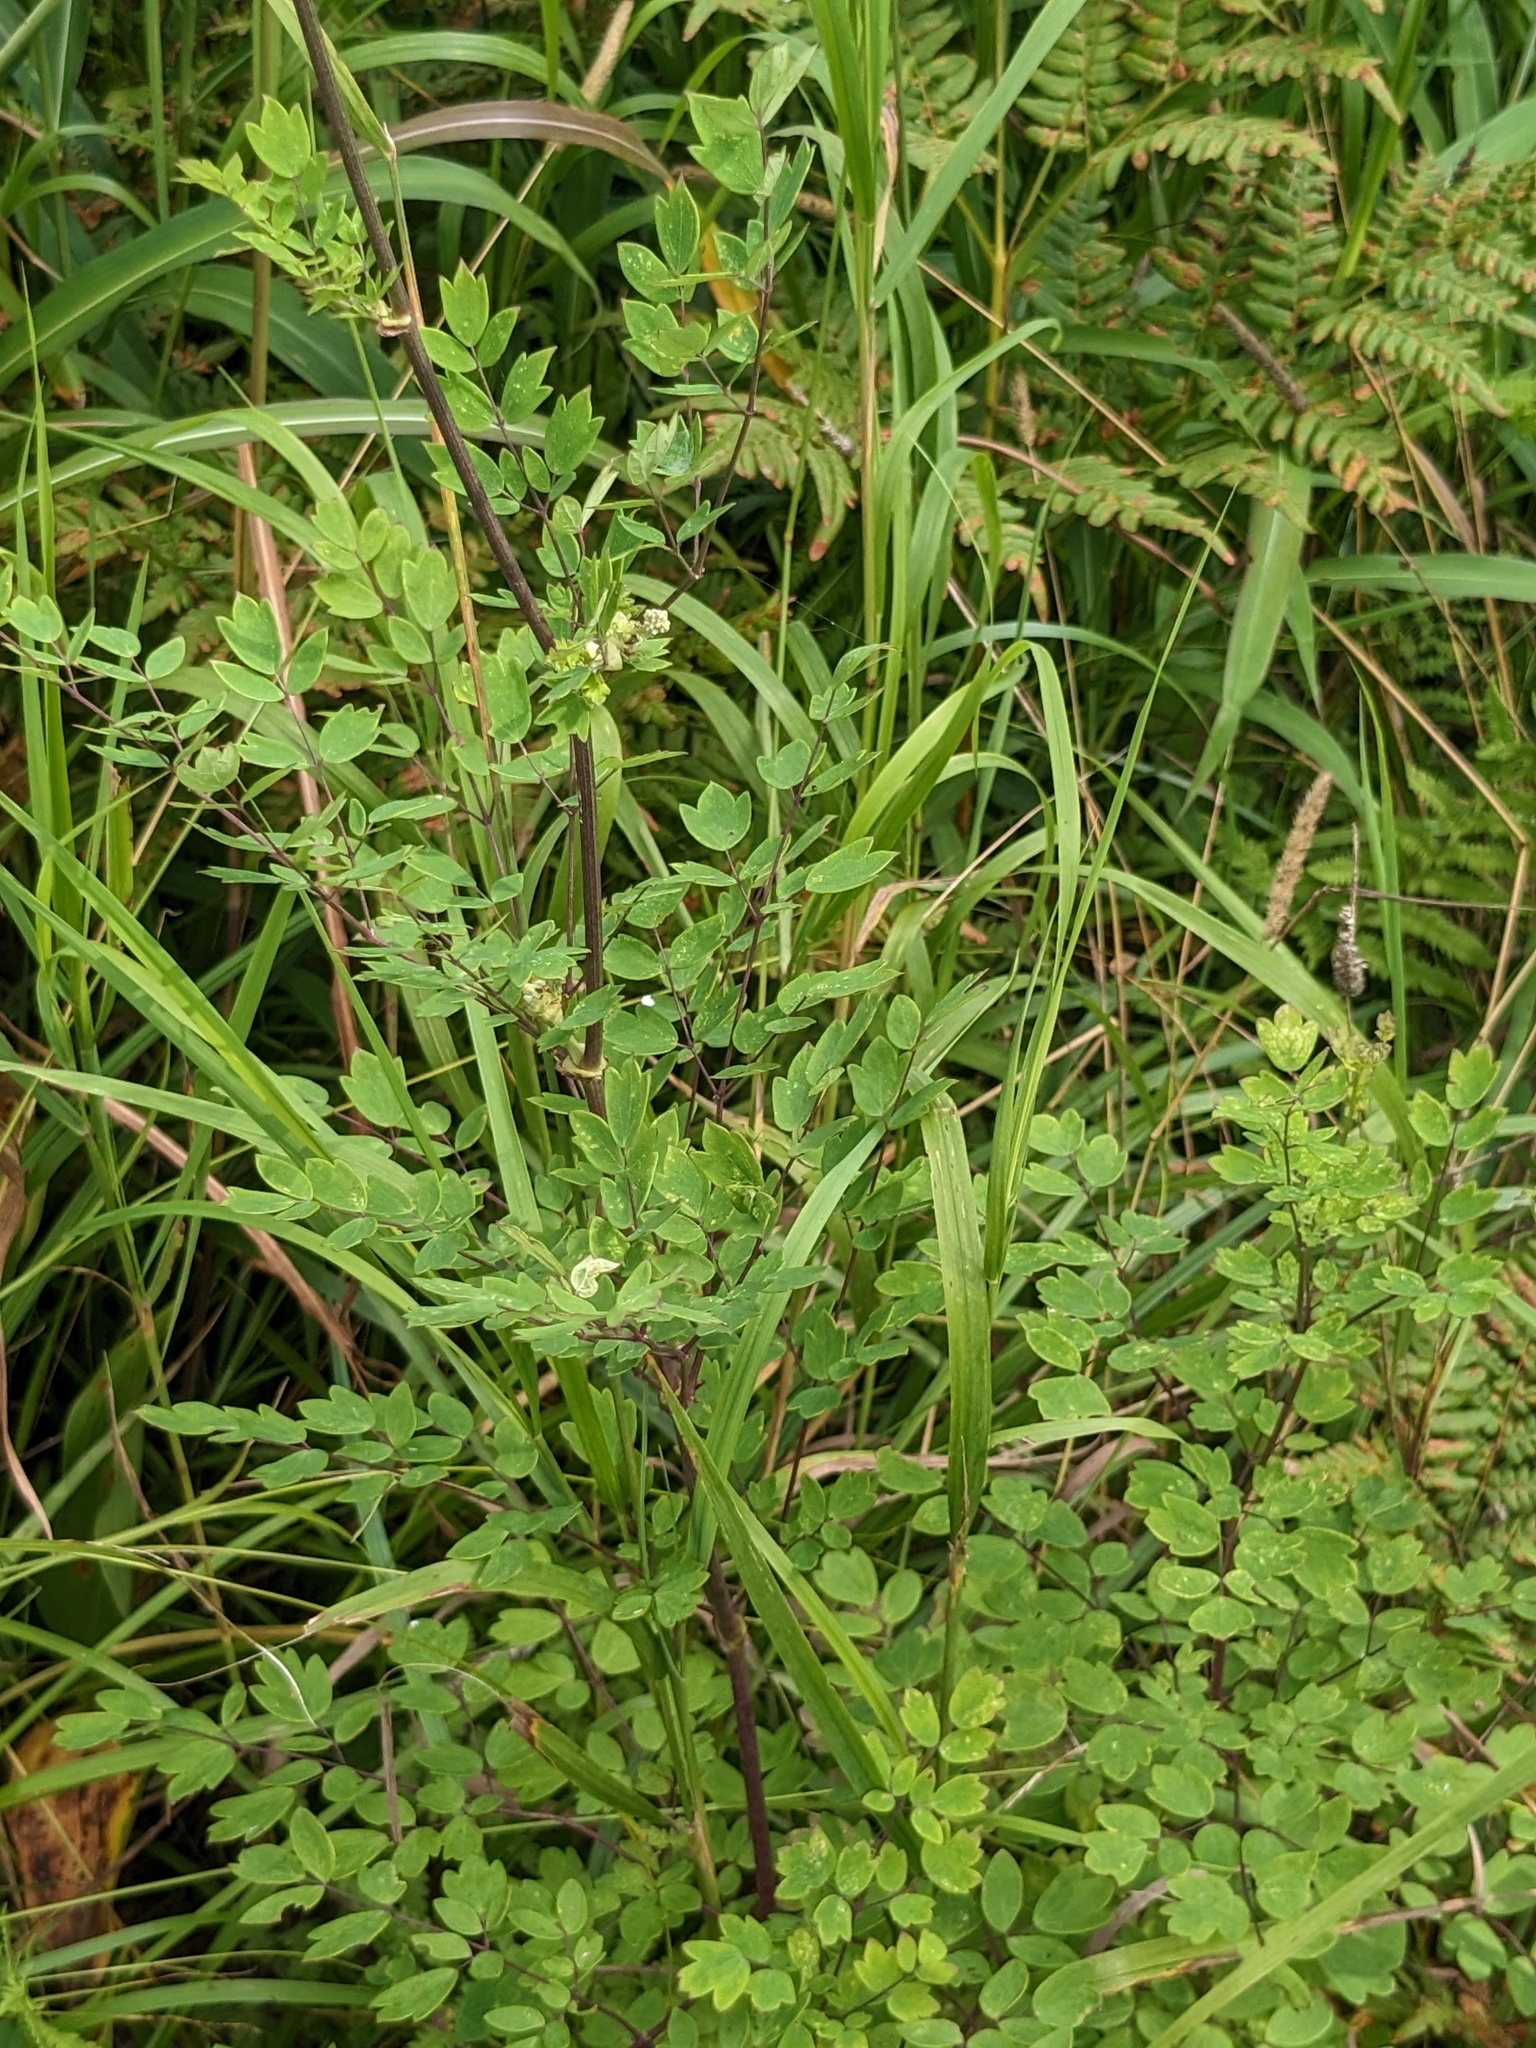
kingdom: Plantae
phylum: Tracheophyta
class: Magnoliopsida
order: Ranunculales
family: Ranunculaceae
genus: Thalictrum
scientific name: Thalictrum minus
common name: Lesser meadow-rue
